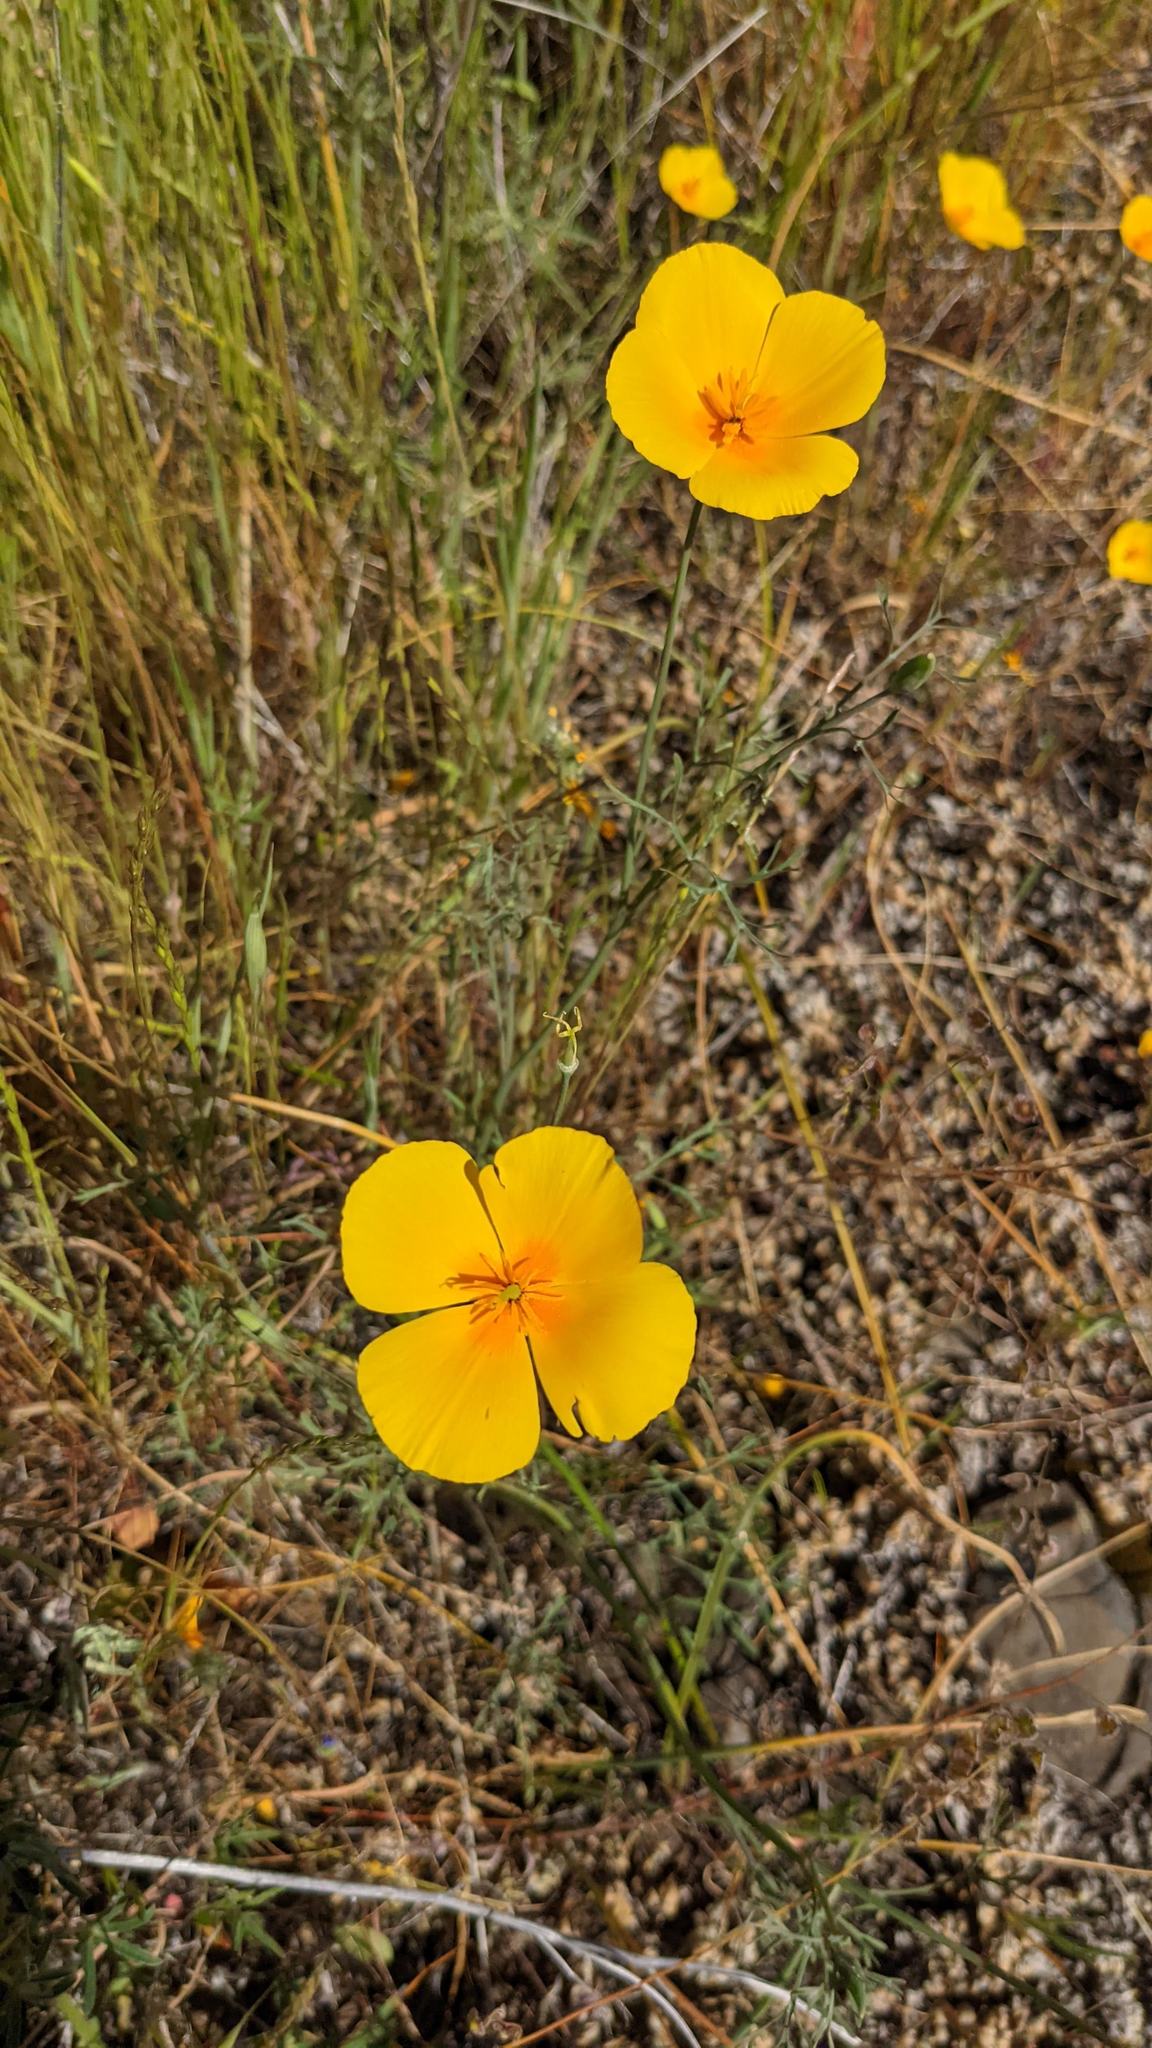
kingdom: Plantae
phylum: Tracheophyta
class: Magnoliopsida
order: Ranunculales
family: Papaveraceae
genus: Eschscholzia
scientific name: Eschscholzia caespitosa
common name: Tufted california-poppy
